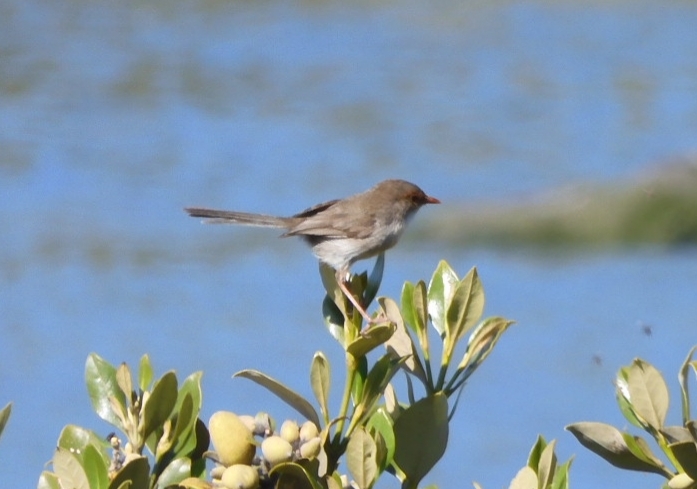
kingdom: Animalia
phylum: Chordata
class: Aves
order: Passeriformes
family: Maluridae
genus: Malurus
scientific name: Malurus cyaneus
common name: Superb fairywren
